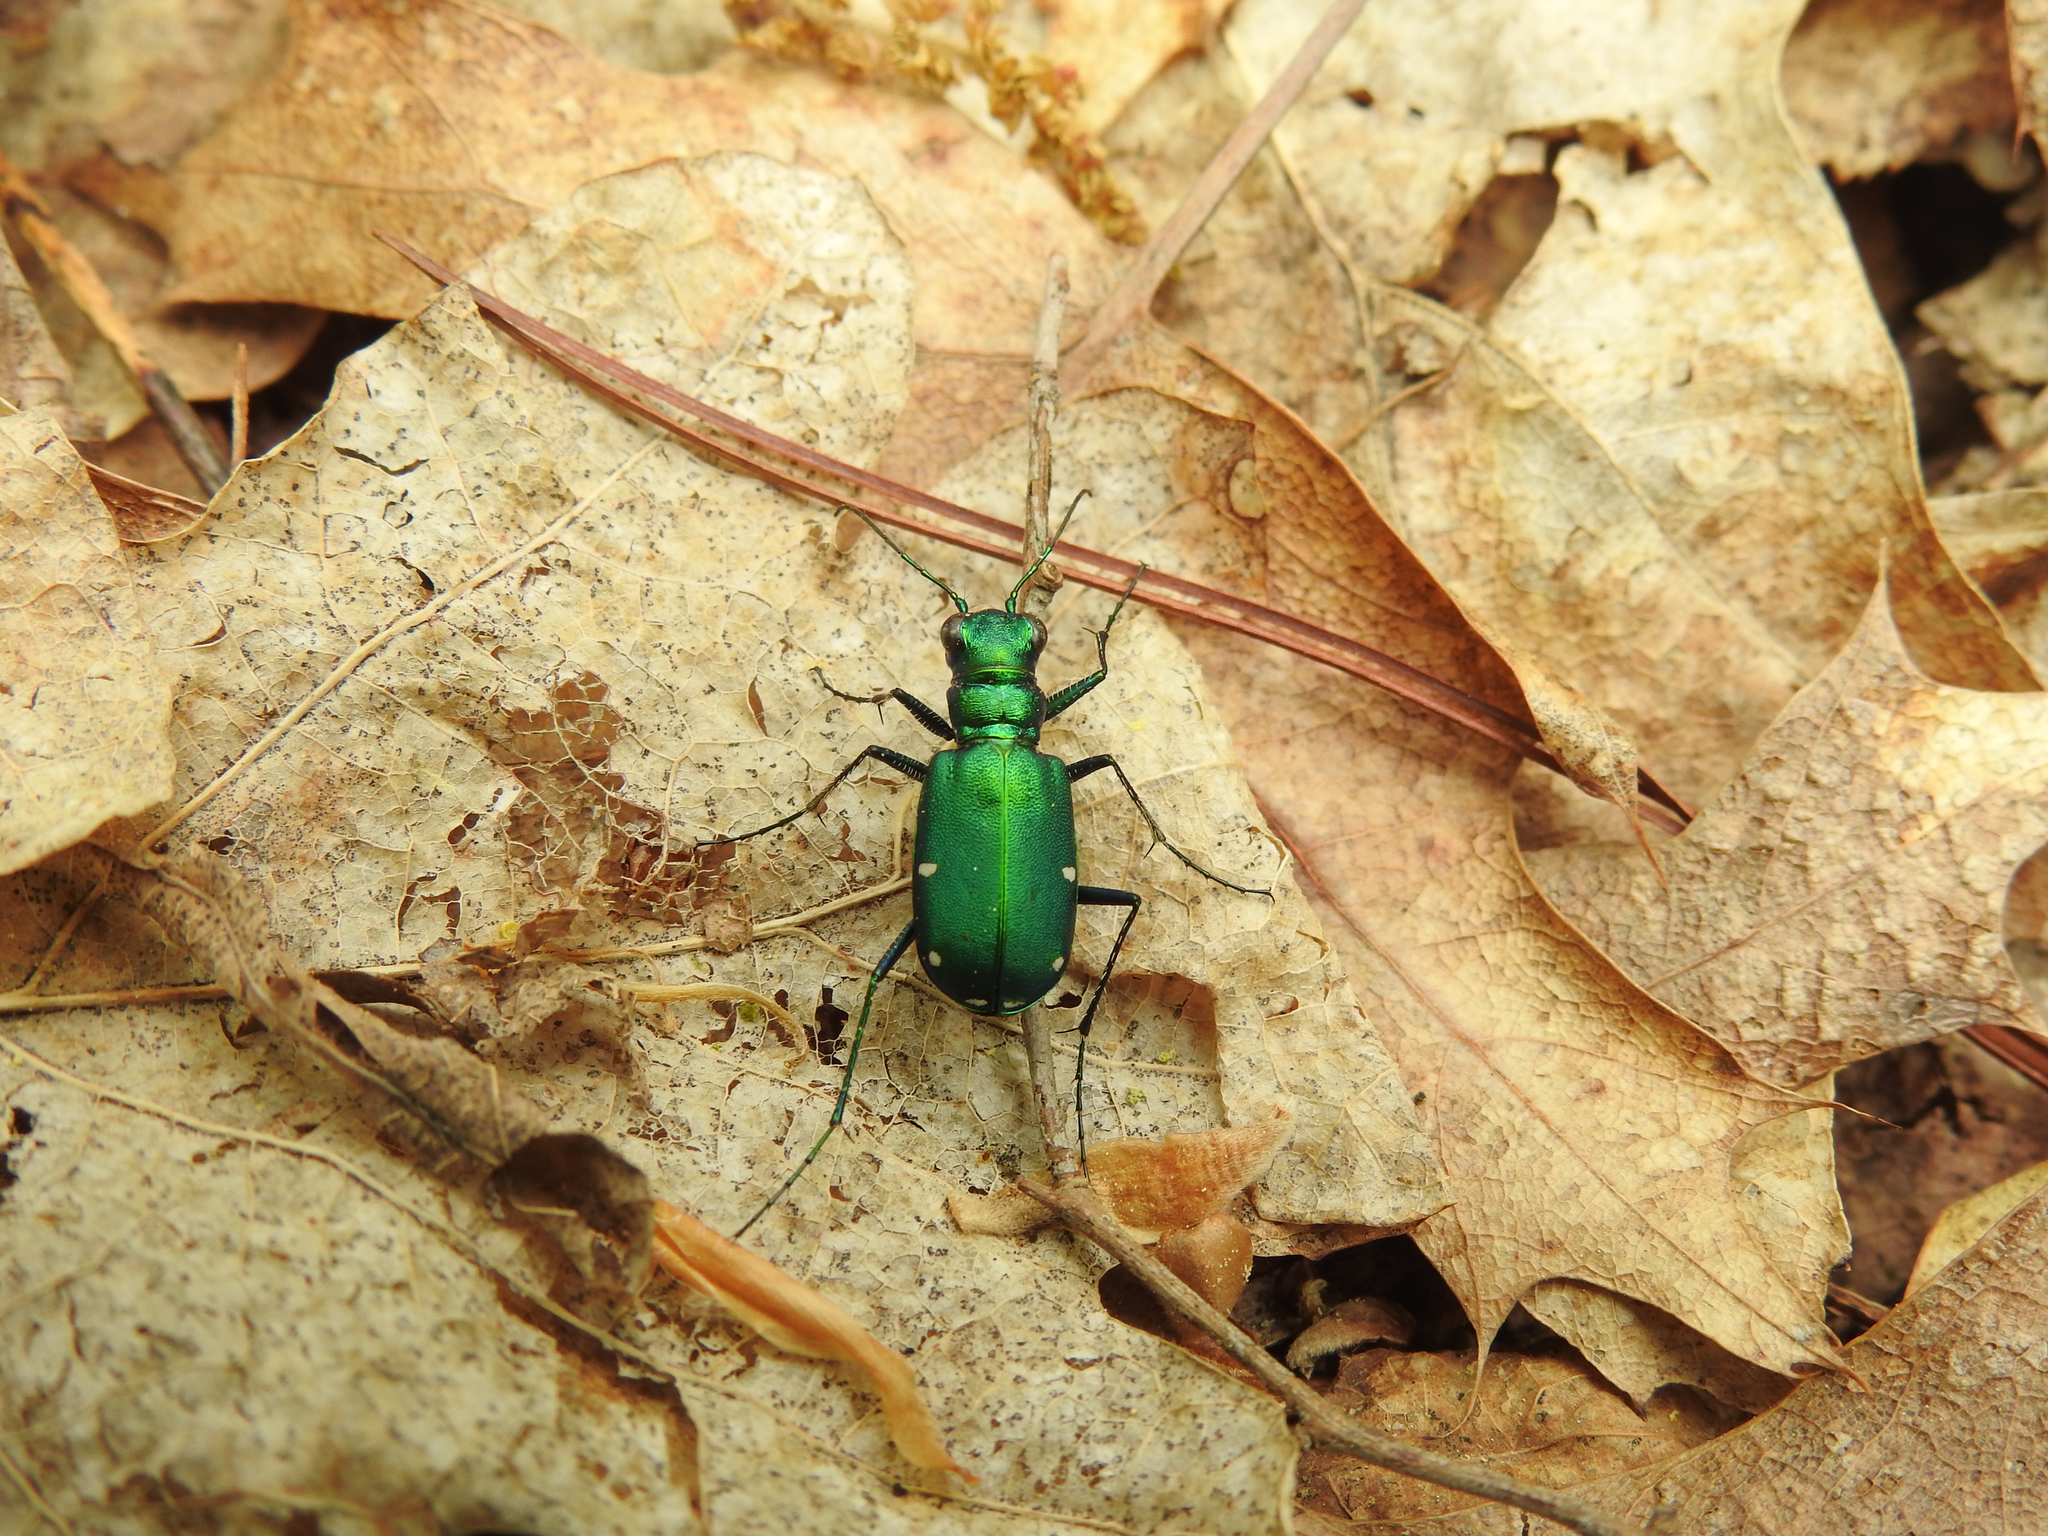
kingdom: Animalia
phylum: Arthropoda
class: Insecta
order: Coleoptera
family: Carabidae
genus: Cicindela
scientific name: Cicindela sexguttata
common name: Six-spotted tiger beetle
